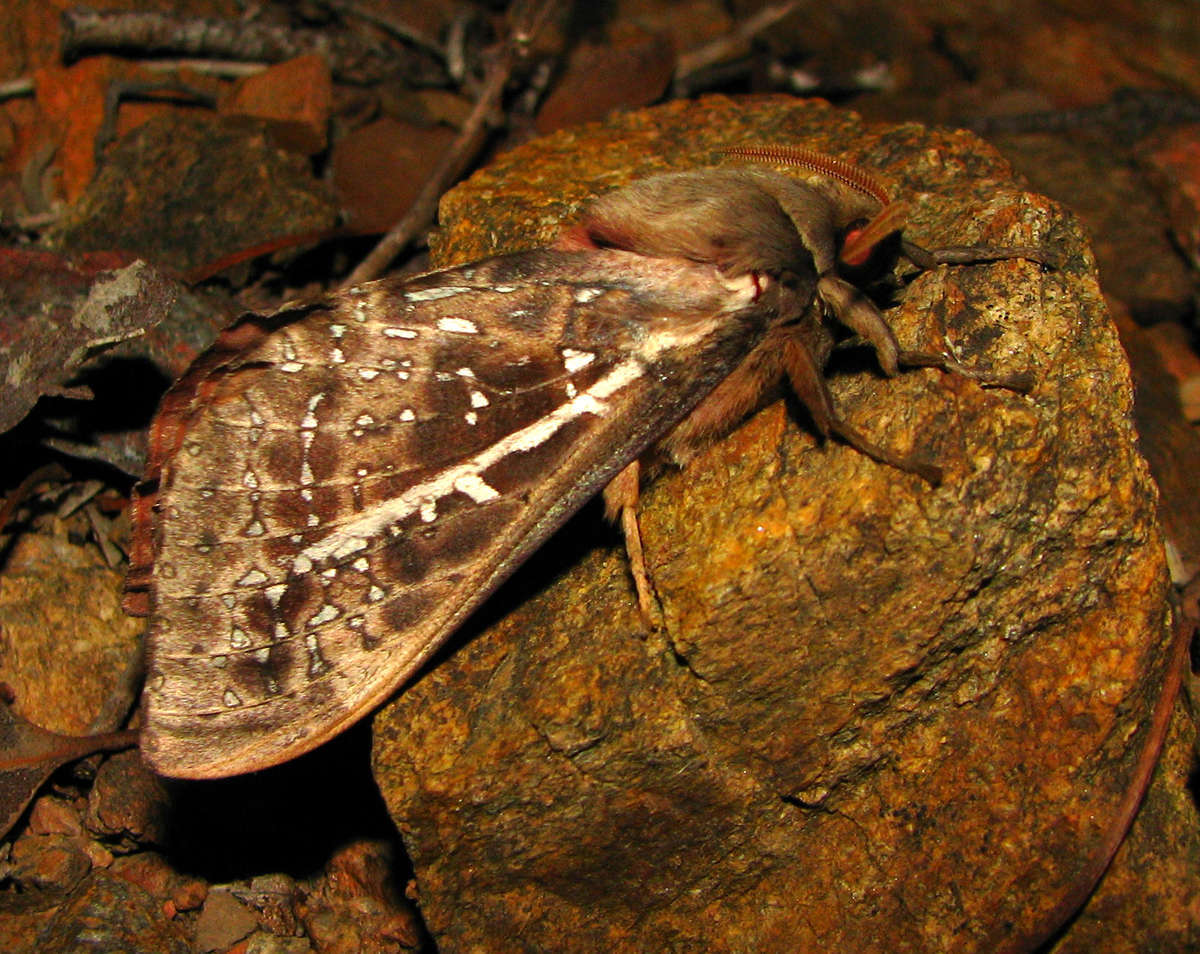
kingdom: Animalia
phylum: Arthropoda
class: Insecta
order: Lepidoptera
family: Hepialidae
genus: Oxycanus
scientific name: Oxycanus australis
